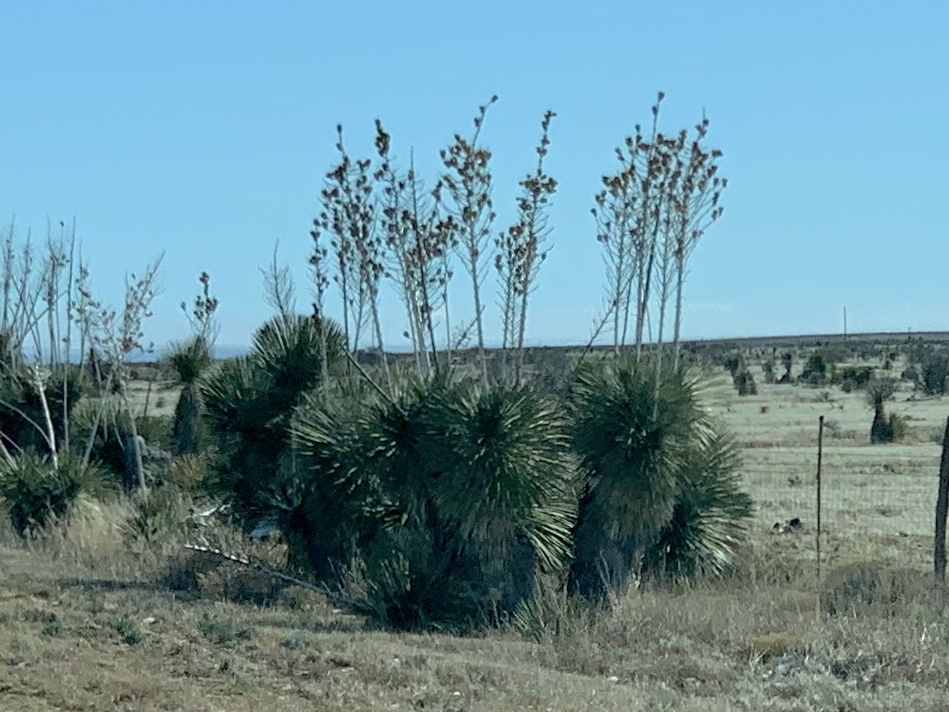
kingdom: Plantae
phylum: Tracheophyta
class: Liliopsida
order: Asparagales
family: Asparagaceae
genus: Yucca
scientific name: Yucca elata
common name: Palmella
